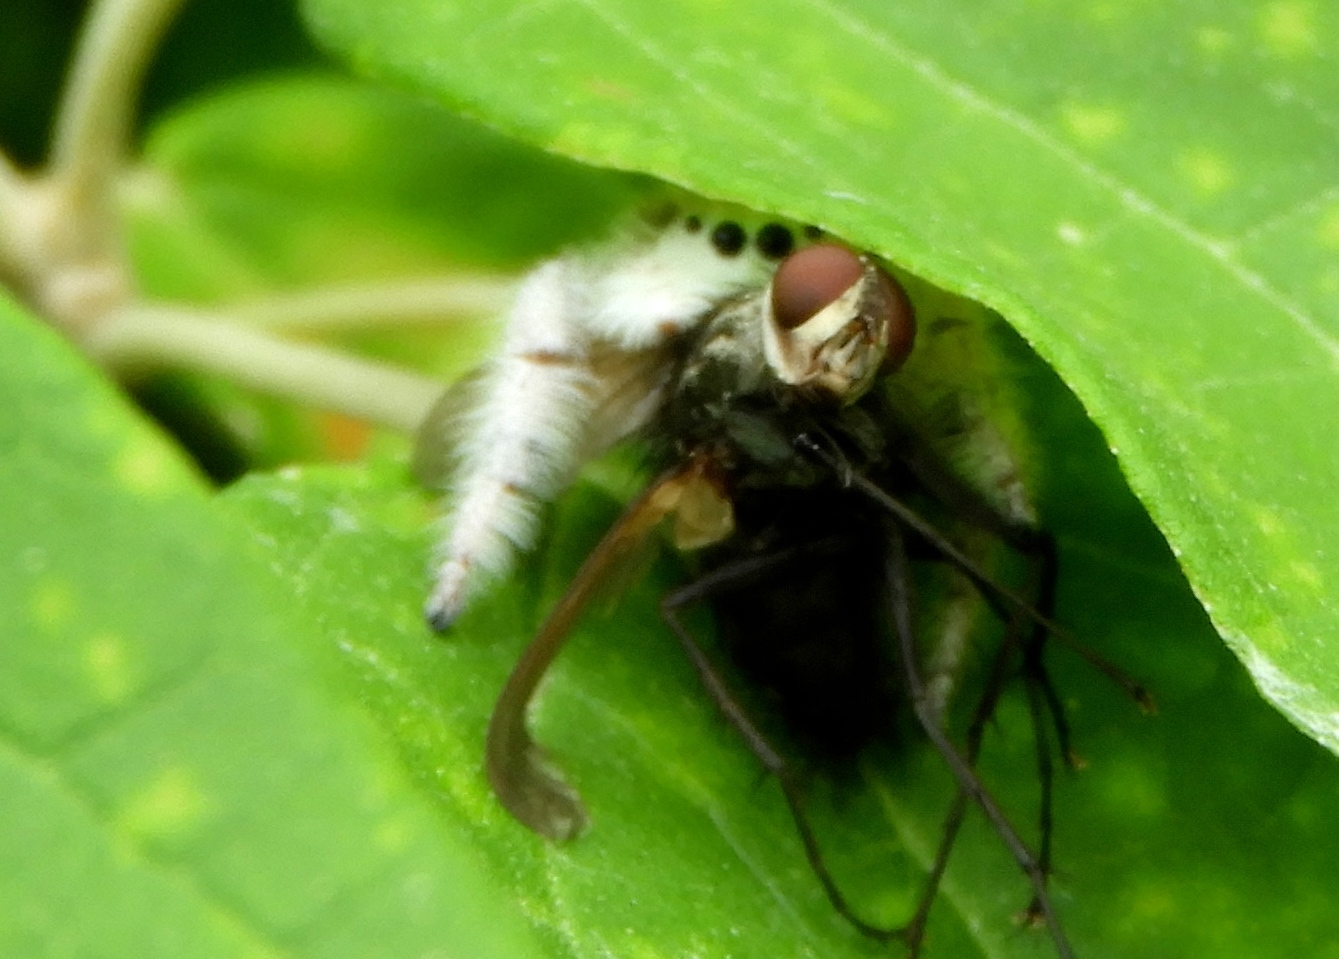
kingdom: Animalia
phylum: Arthropoda
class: Arachnida
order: Araneae
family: Salticidae
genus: Paraphidippus
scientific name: Paraphidippus fartilis
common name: Jumping spiders
